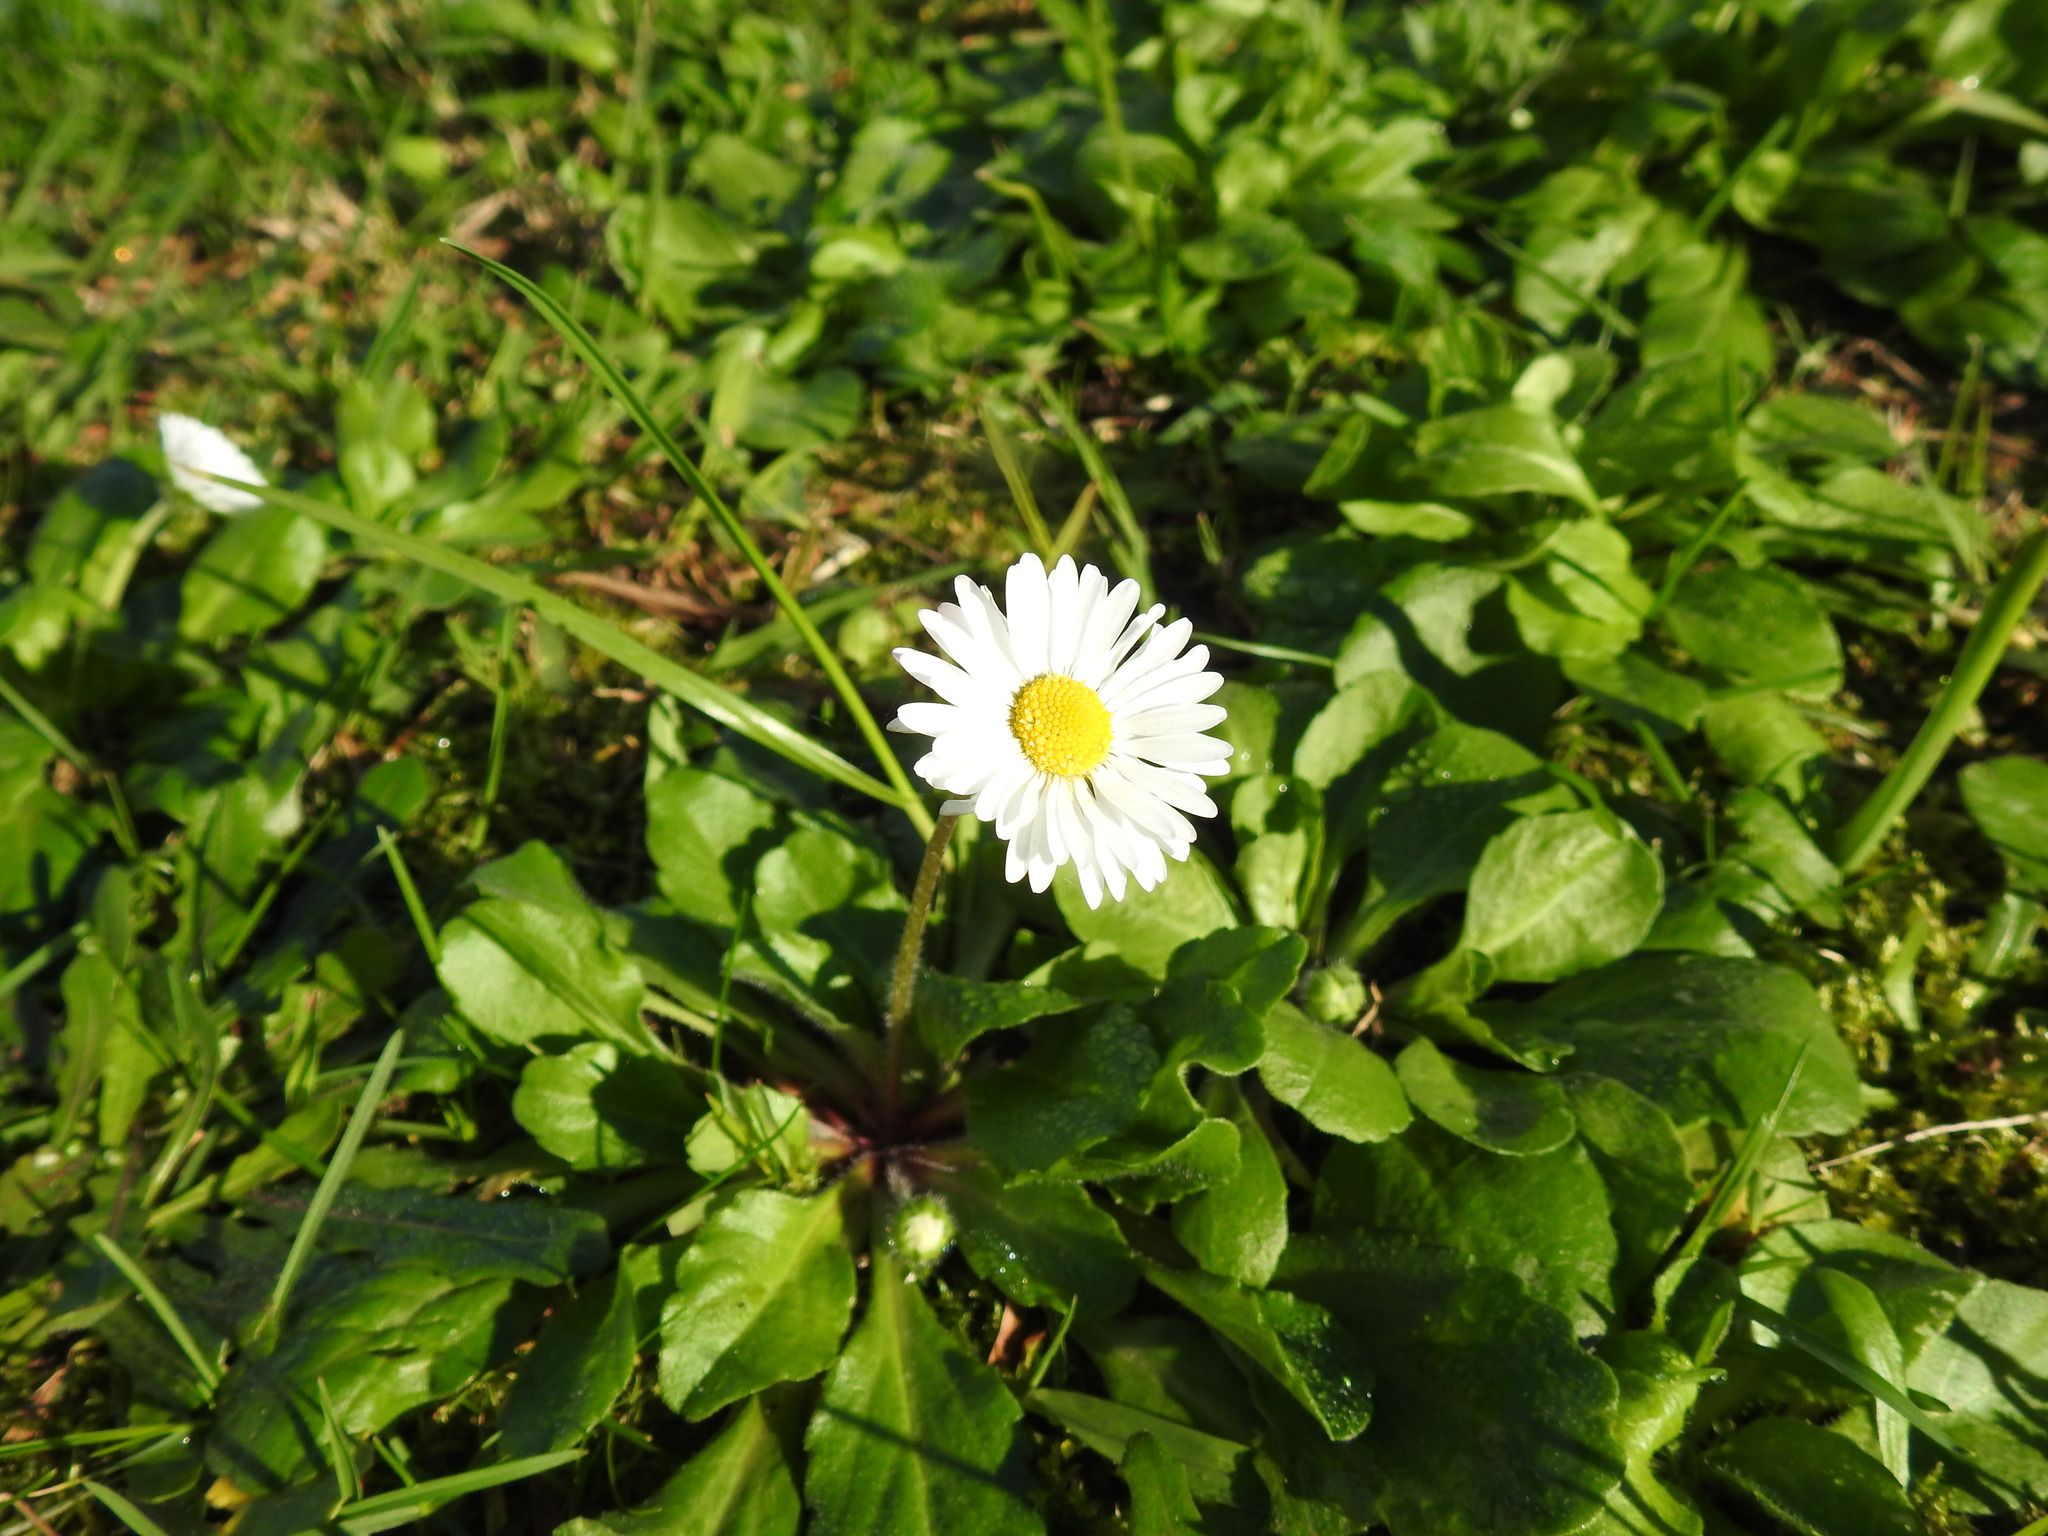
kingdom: Plantae
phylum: Tracheophyta
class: Magnoliopsida
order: Asterales
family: Asteraceae
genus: Bellis
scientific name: Bellis perennis
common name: Lawndaisy
